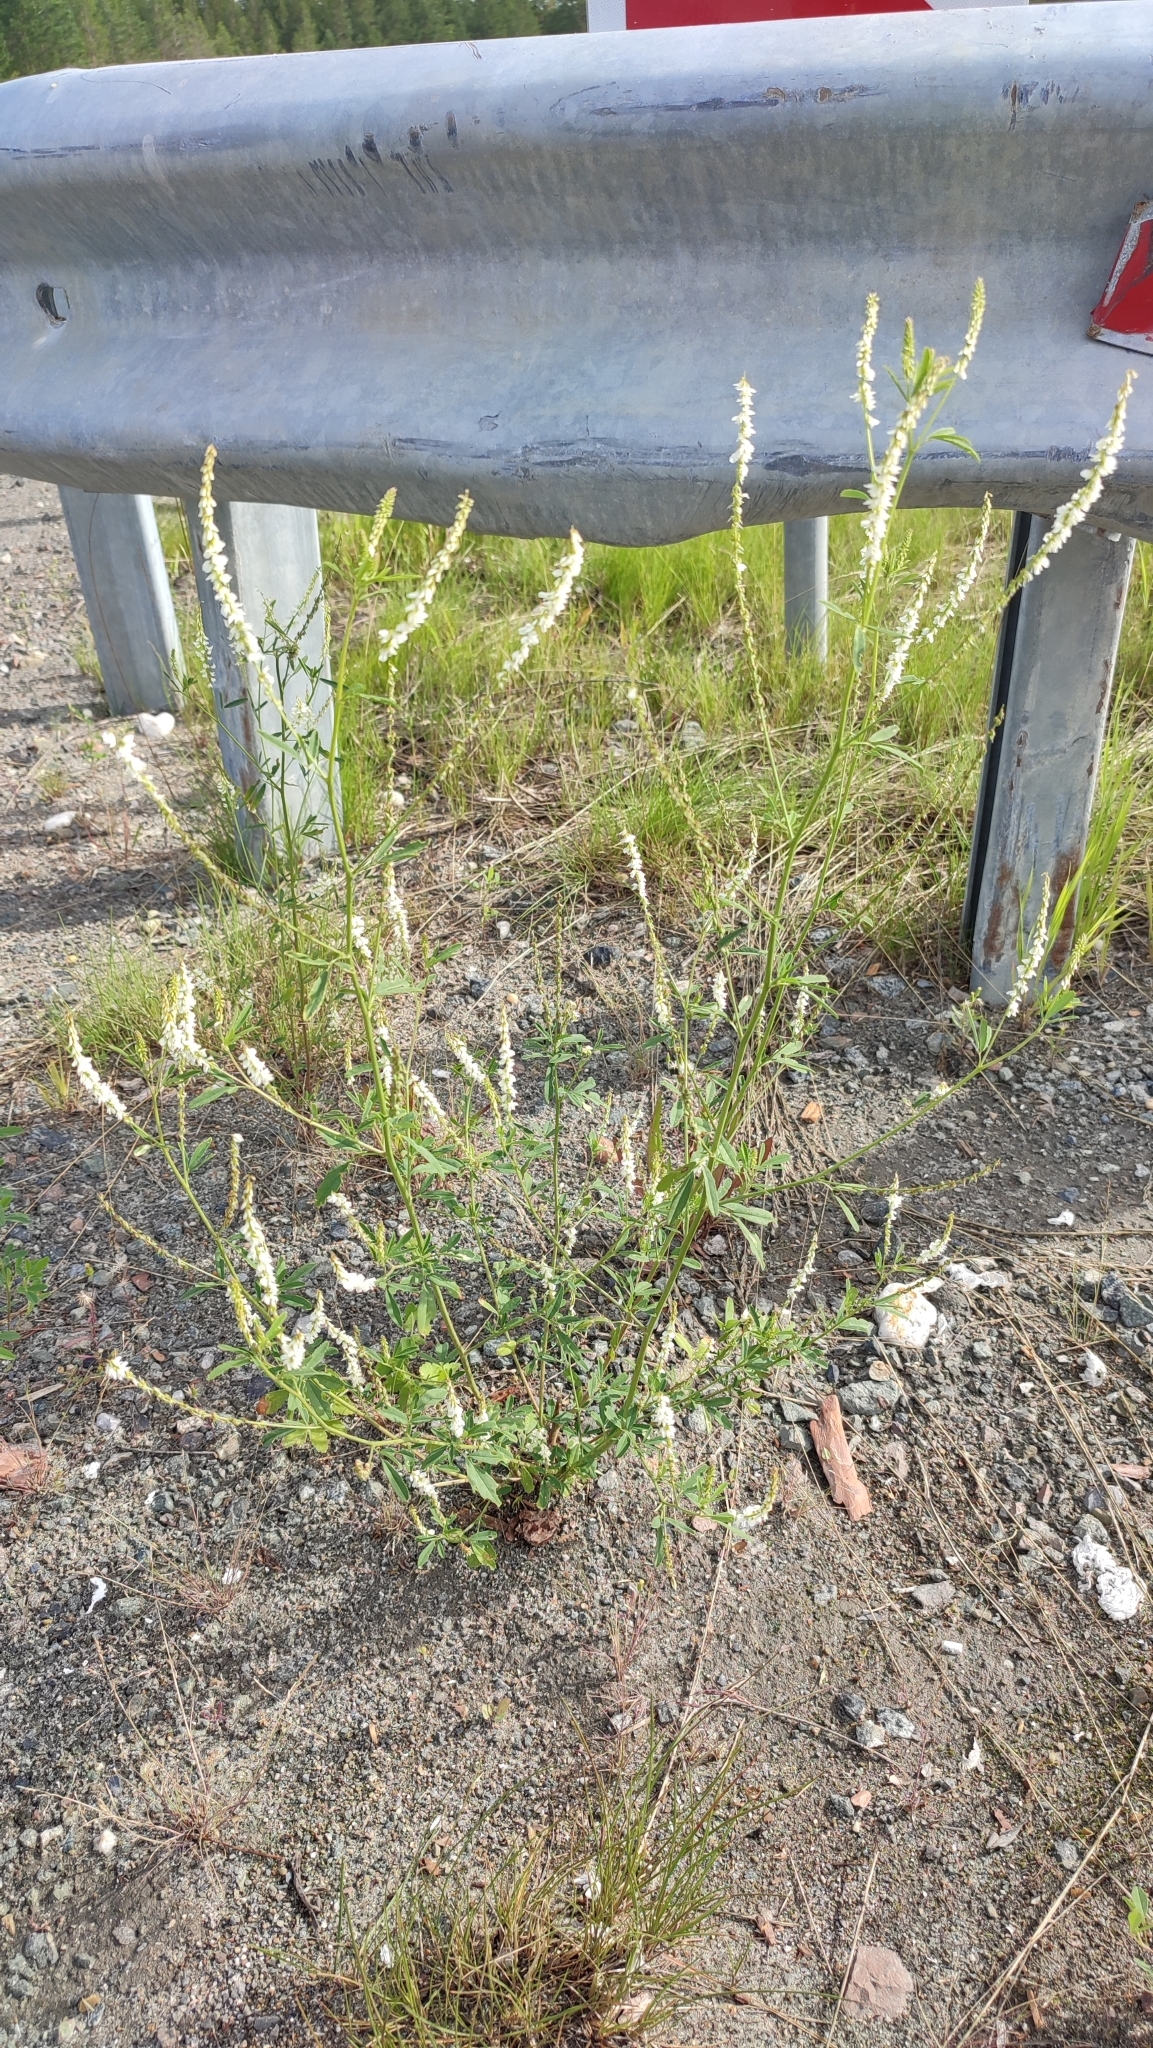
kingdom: Plantae
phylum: Tracheophyta
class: Magnoliopsida
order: Fabales
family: Fabaceae
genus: Melilotus
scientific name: Melilotus albus
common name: White melilot
